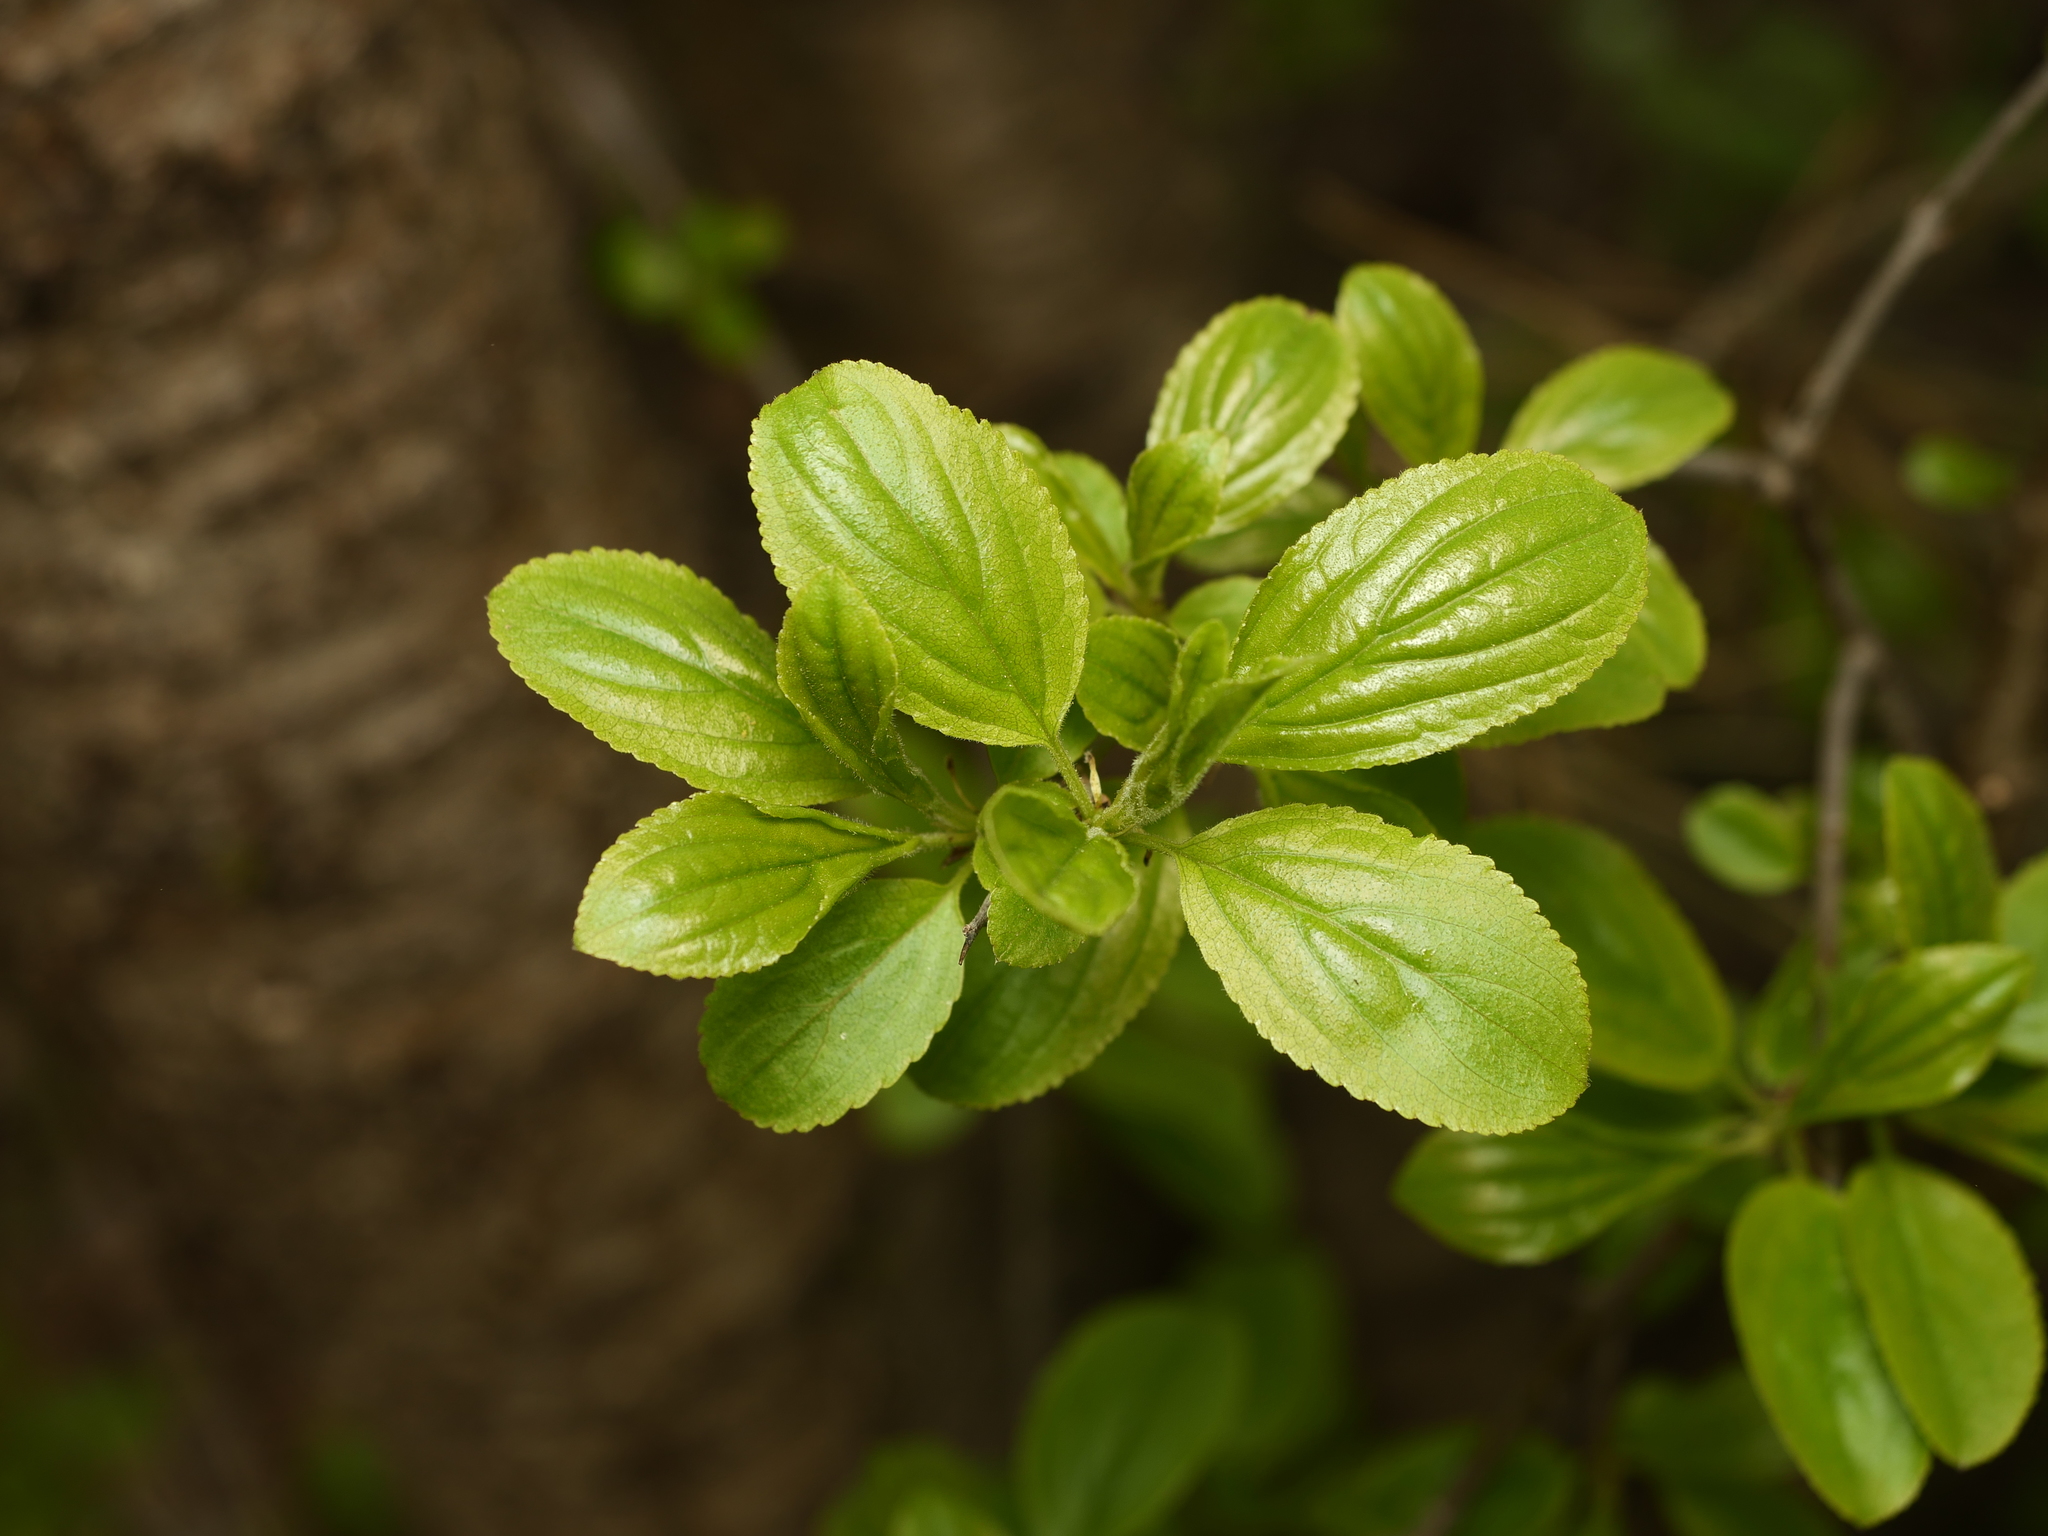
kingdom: Plantae
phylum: Tracheophyta
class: Magnoliopsida
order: Rosales
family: Rhamnaceae
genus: Rhamnus
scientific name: Rhamnus cathartica
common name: Common buckthorn
